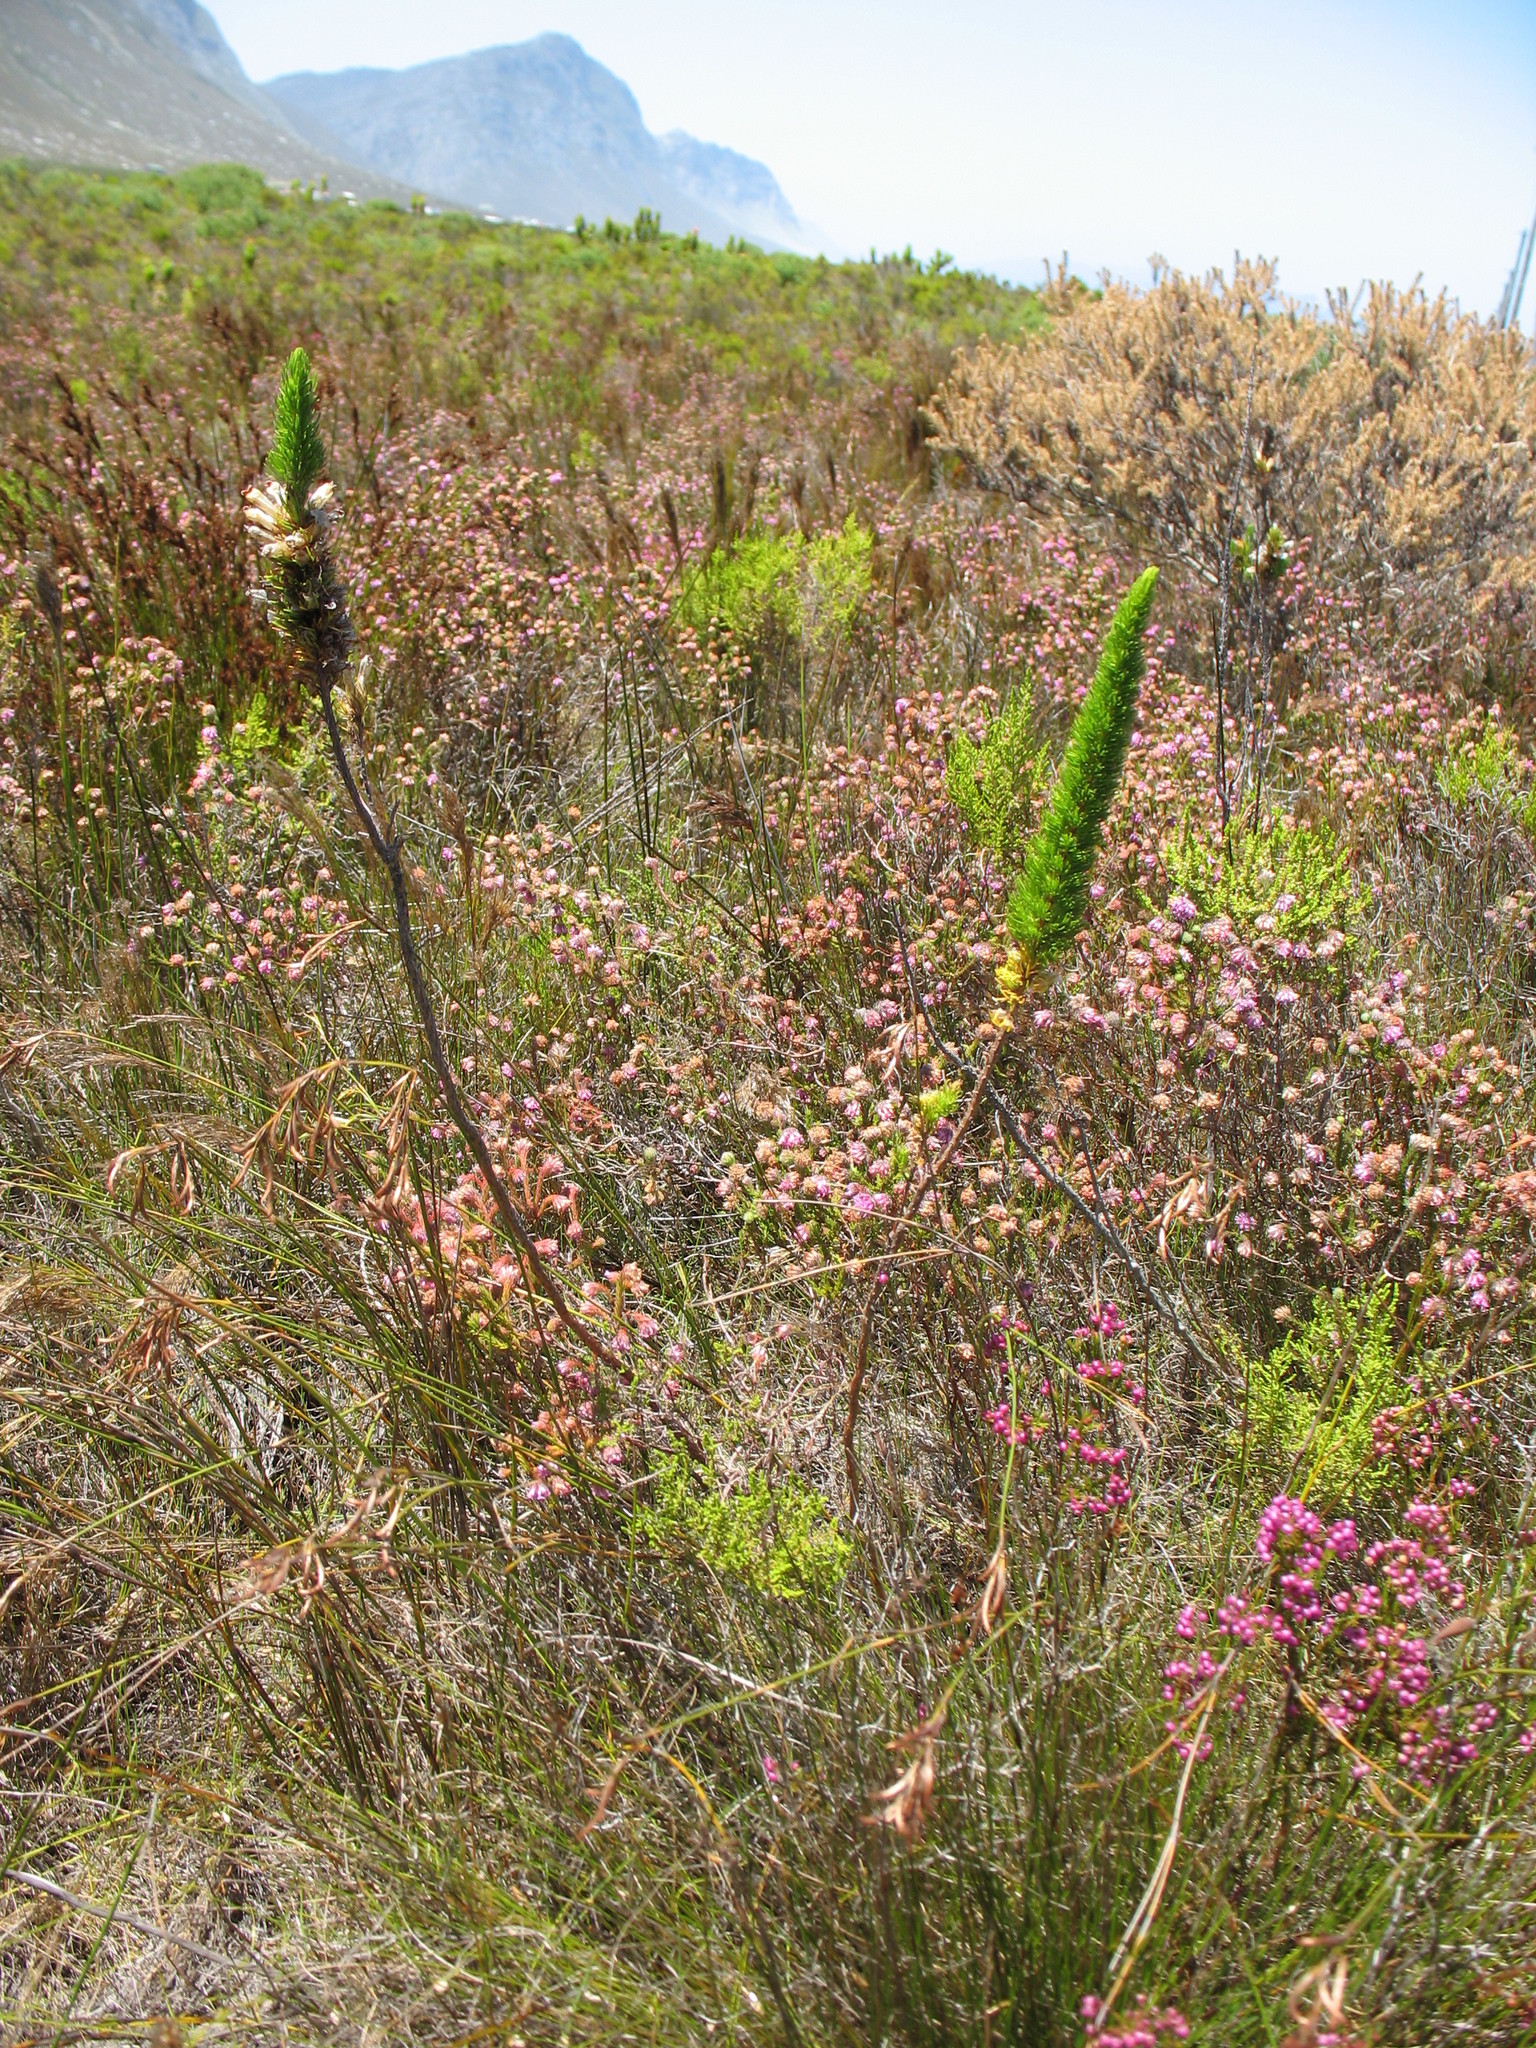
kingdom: Plantae
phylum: Tracheophyta
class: Magnoliopsida
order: Ericales
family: Ericaceae
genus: Erica
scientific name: Erica patersonia
